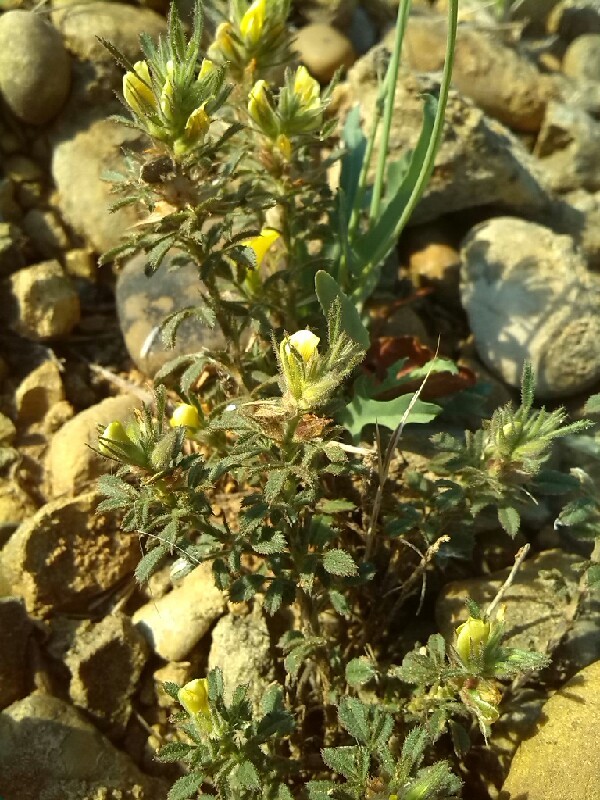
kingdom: Plantae
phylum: Tracheophyta
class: Magnoliopsida
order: Fabales
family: Fabaceae
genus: Ononis
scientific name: Ononis pusilla
